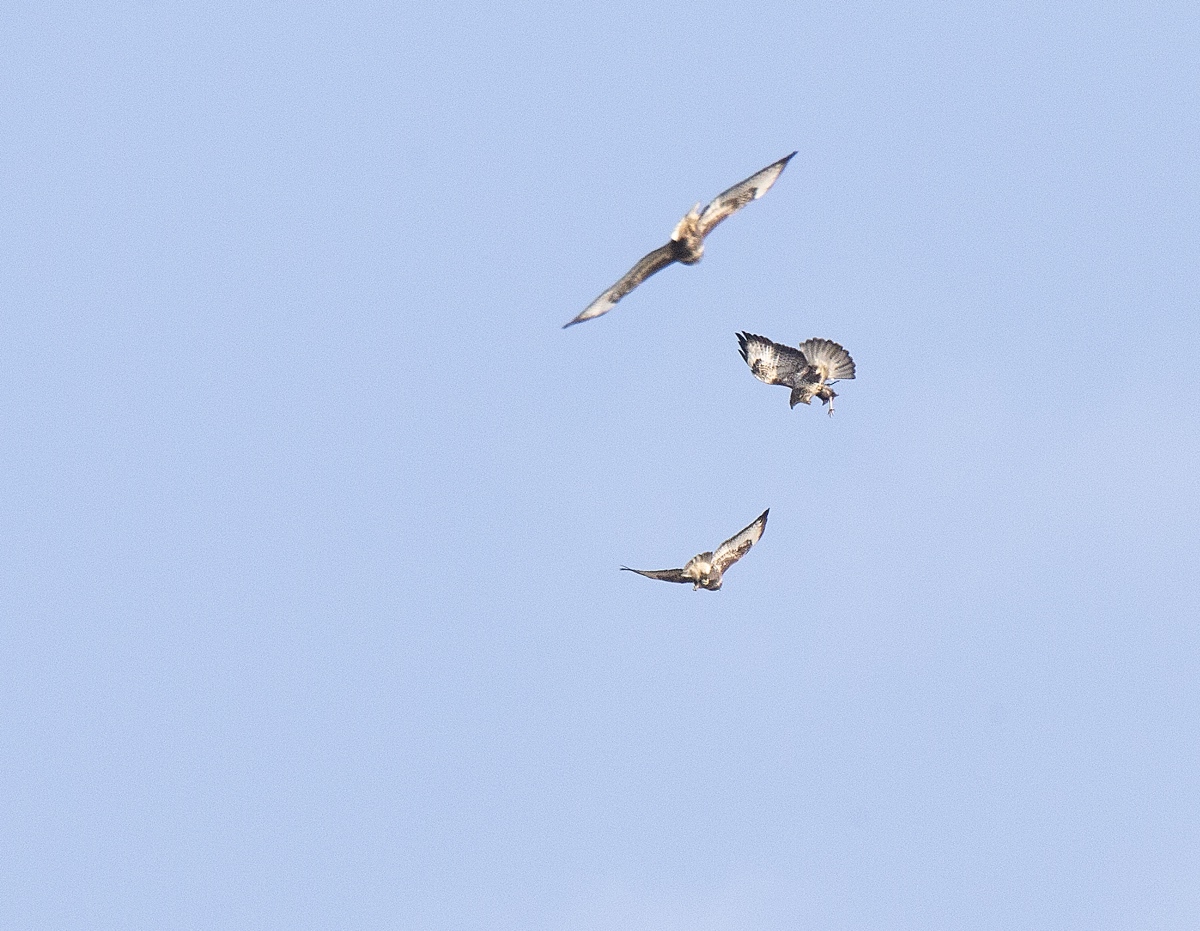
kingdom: Animalia
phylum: Chordata
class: Aves
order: Accipitriformes
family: Accipitridae
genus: Buteo
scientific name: Buteo buteo
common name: Common buzzard
